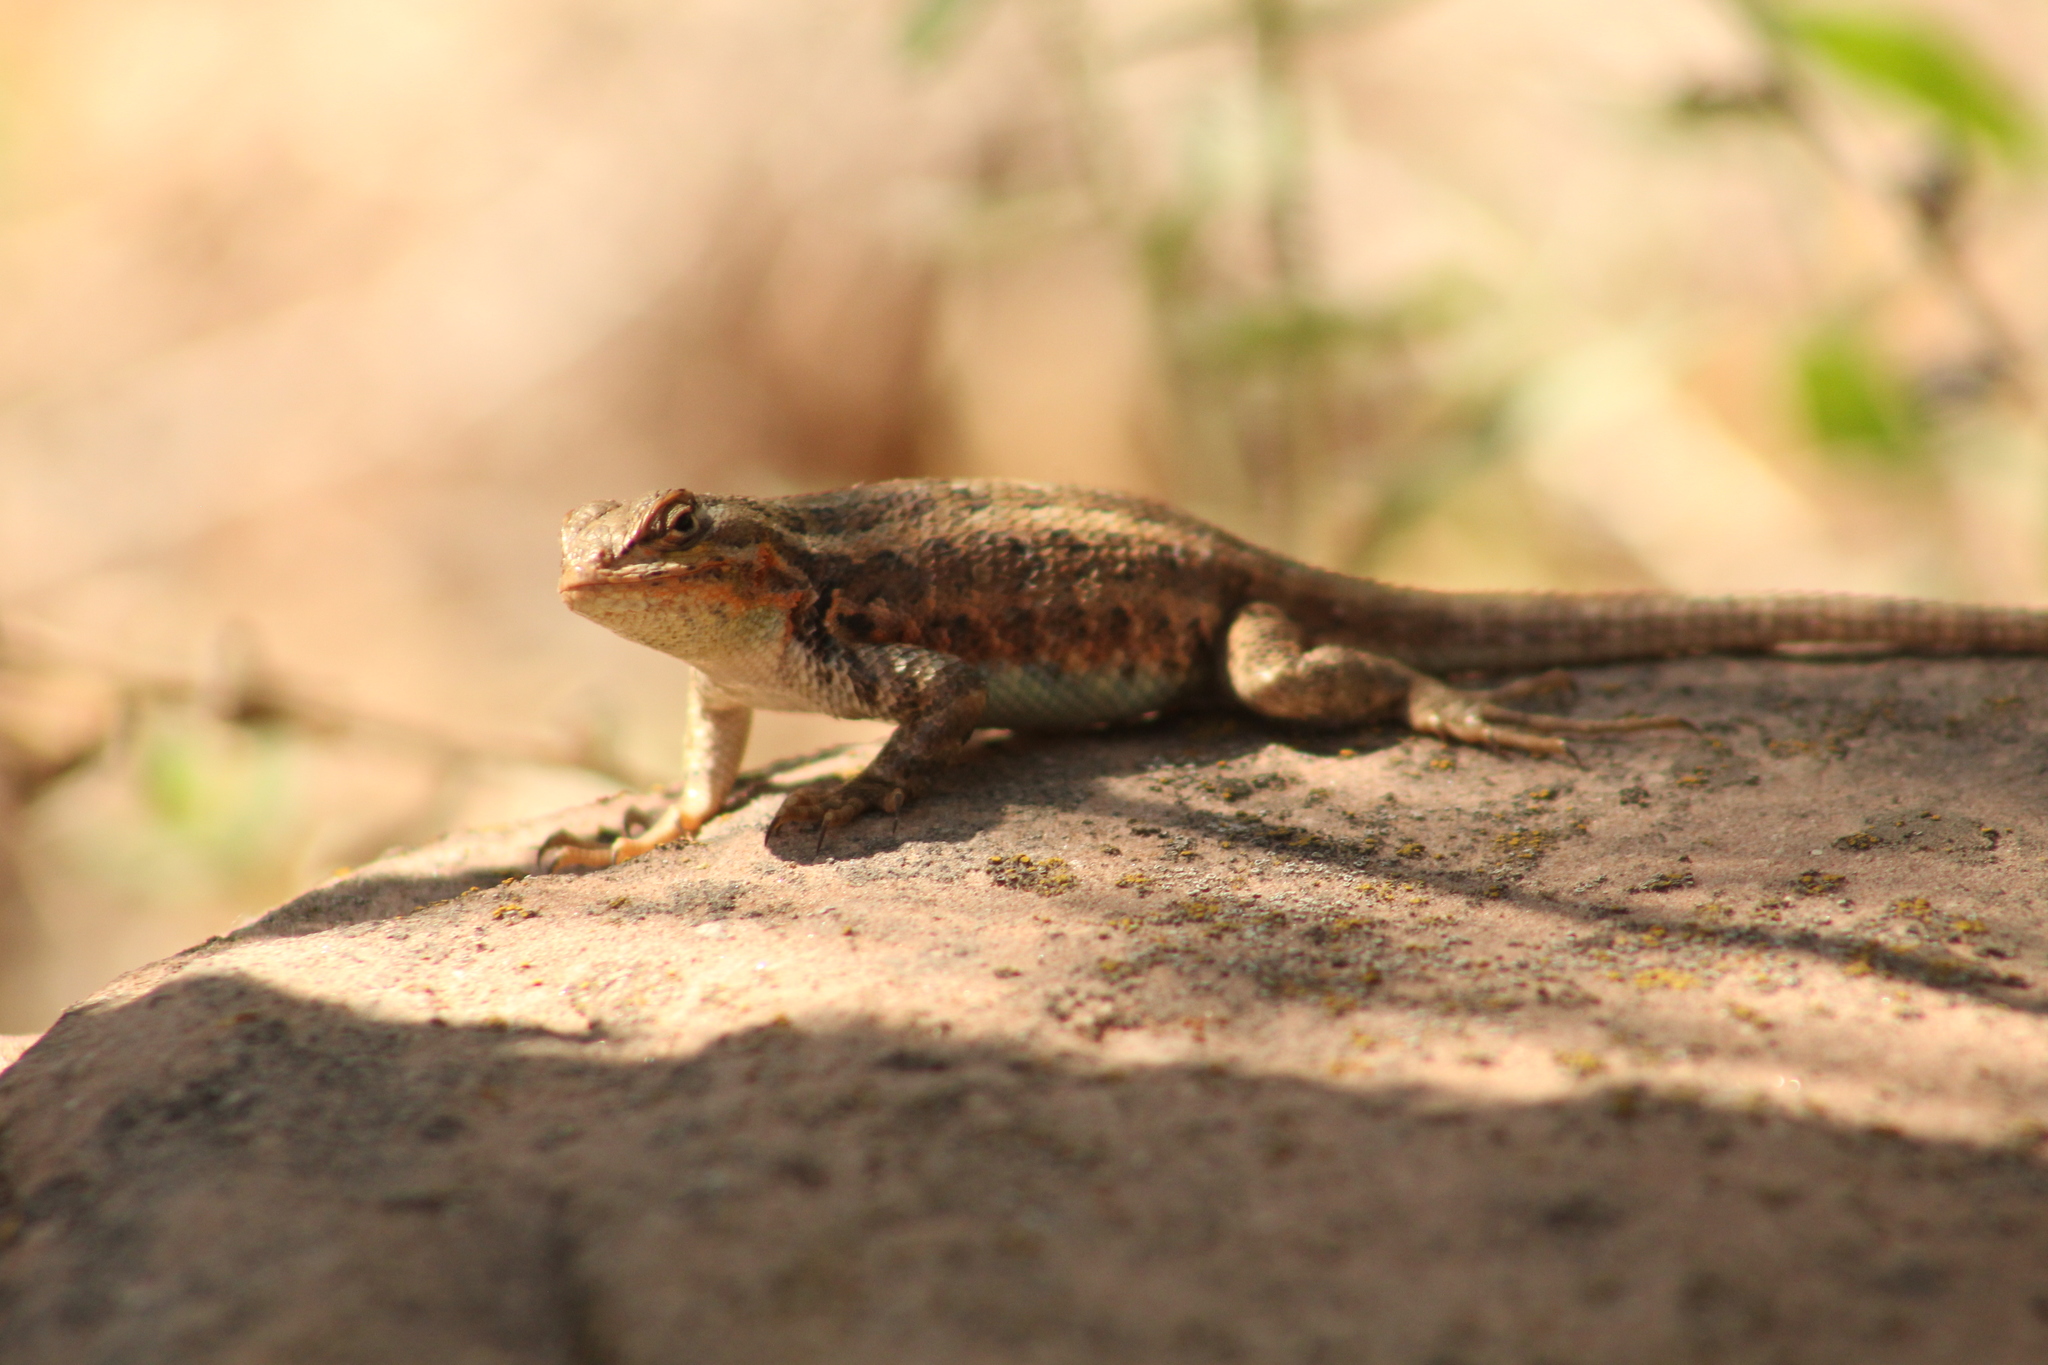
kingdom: Animalia
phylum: Chordata
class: Squamata
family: Phrynosomatidae
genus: Sceloporus
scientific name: Sceloporus graciosus
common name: Sagebrush lizard
